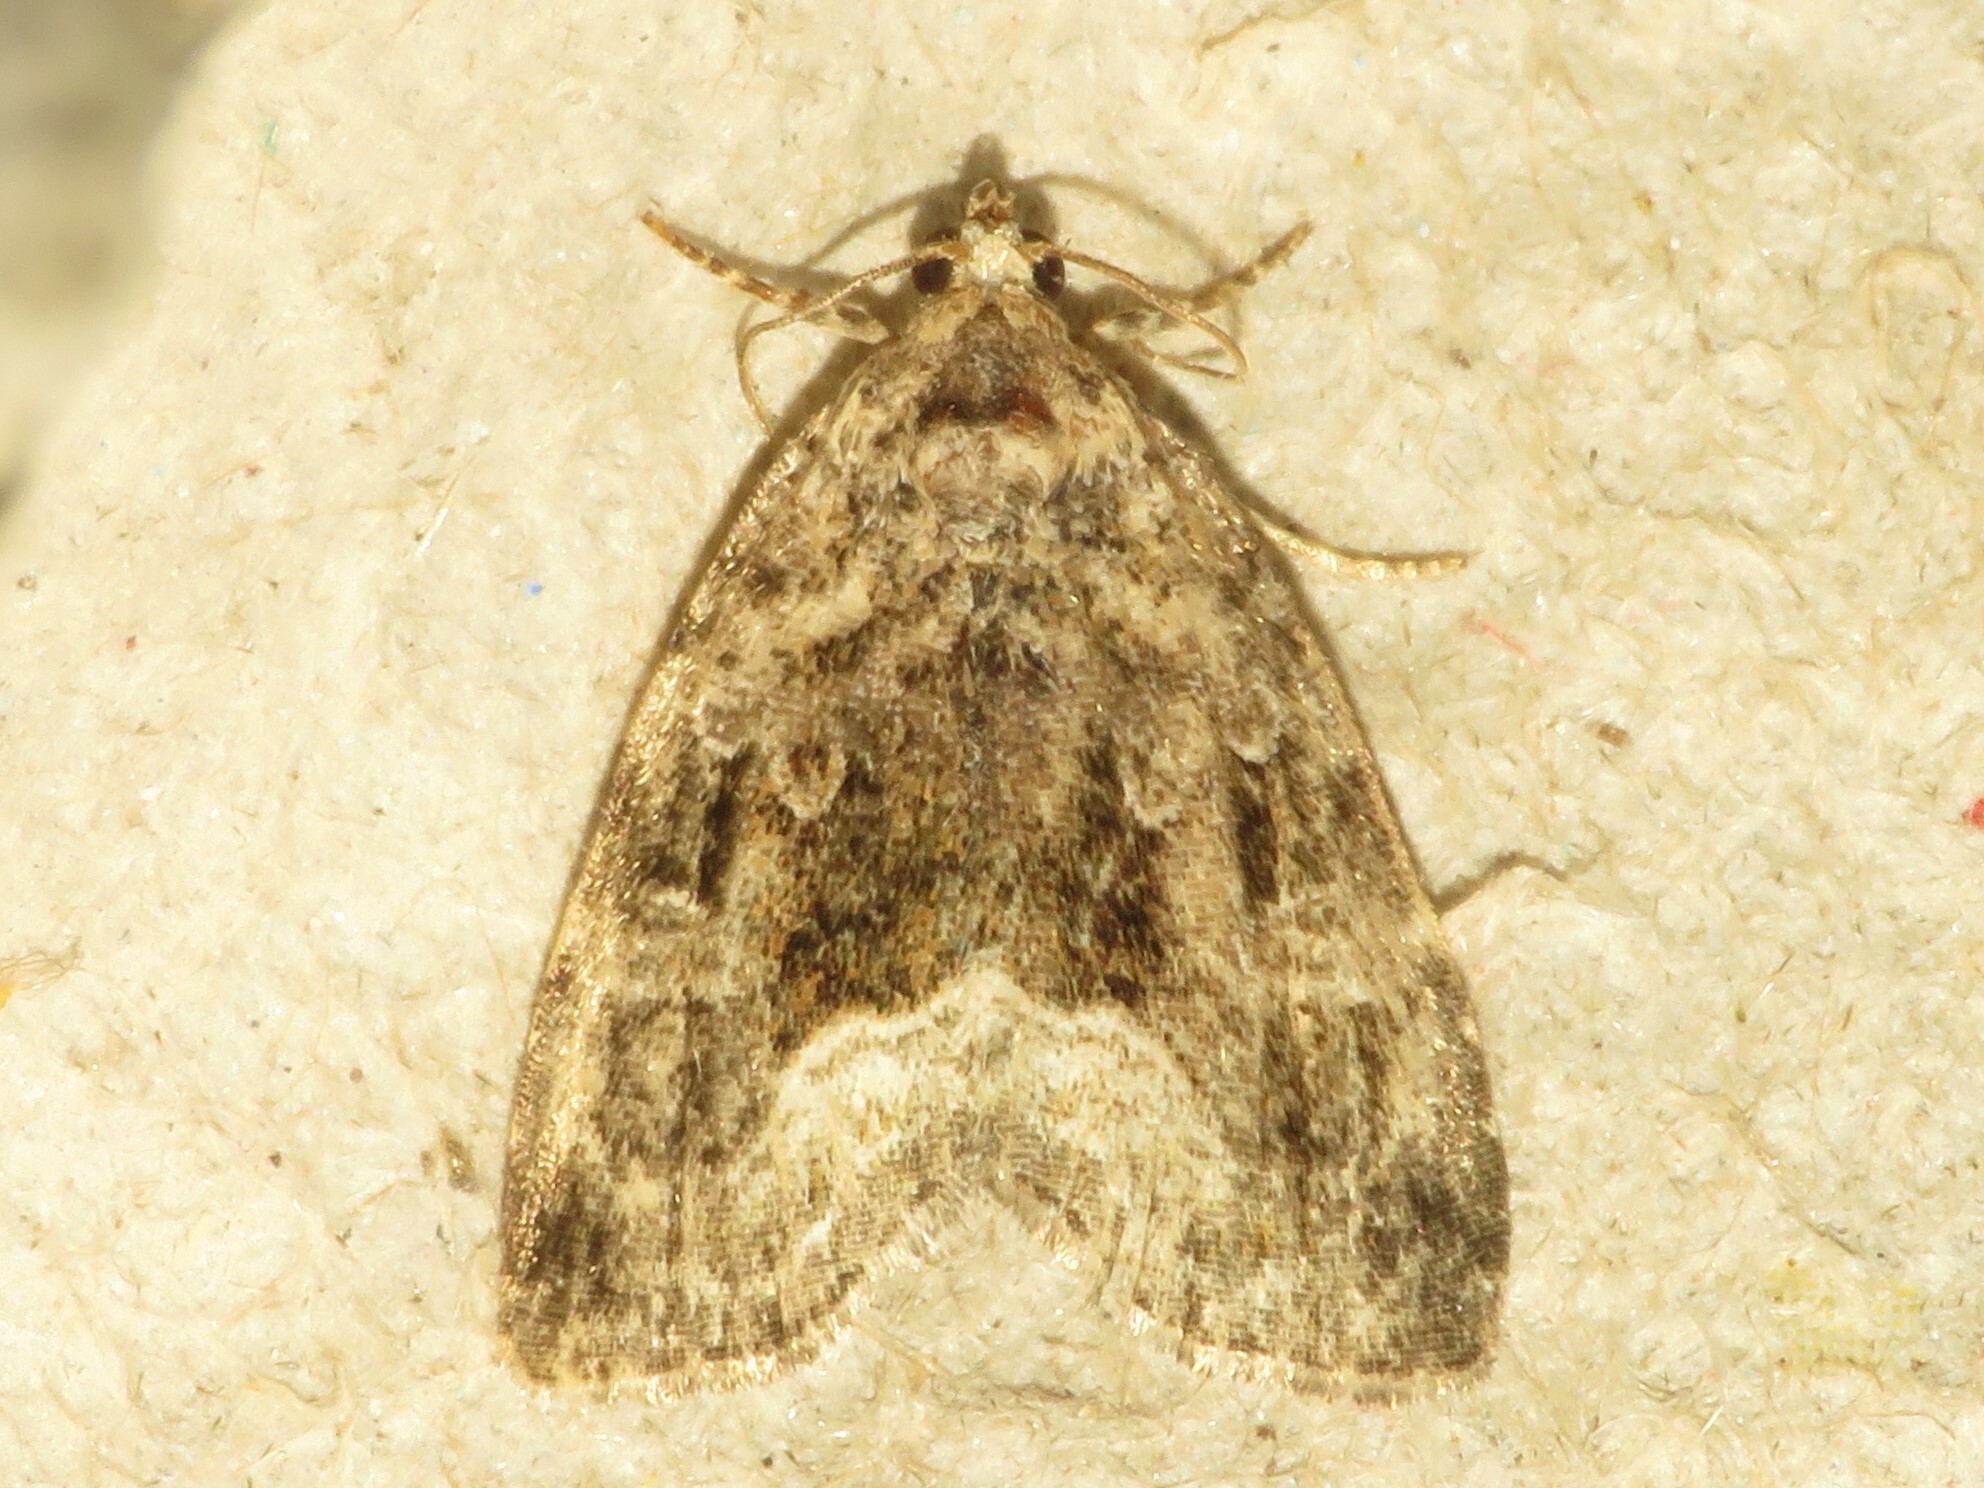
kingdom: Animalia
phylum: Arthropoda
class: Insecta
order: Lepidoptera
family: Noctuidae
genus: Protodeltote
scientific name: Protodeltote muscosula
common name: Large mossy glyph
